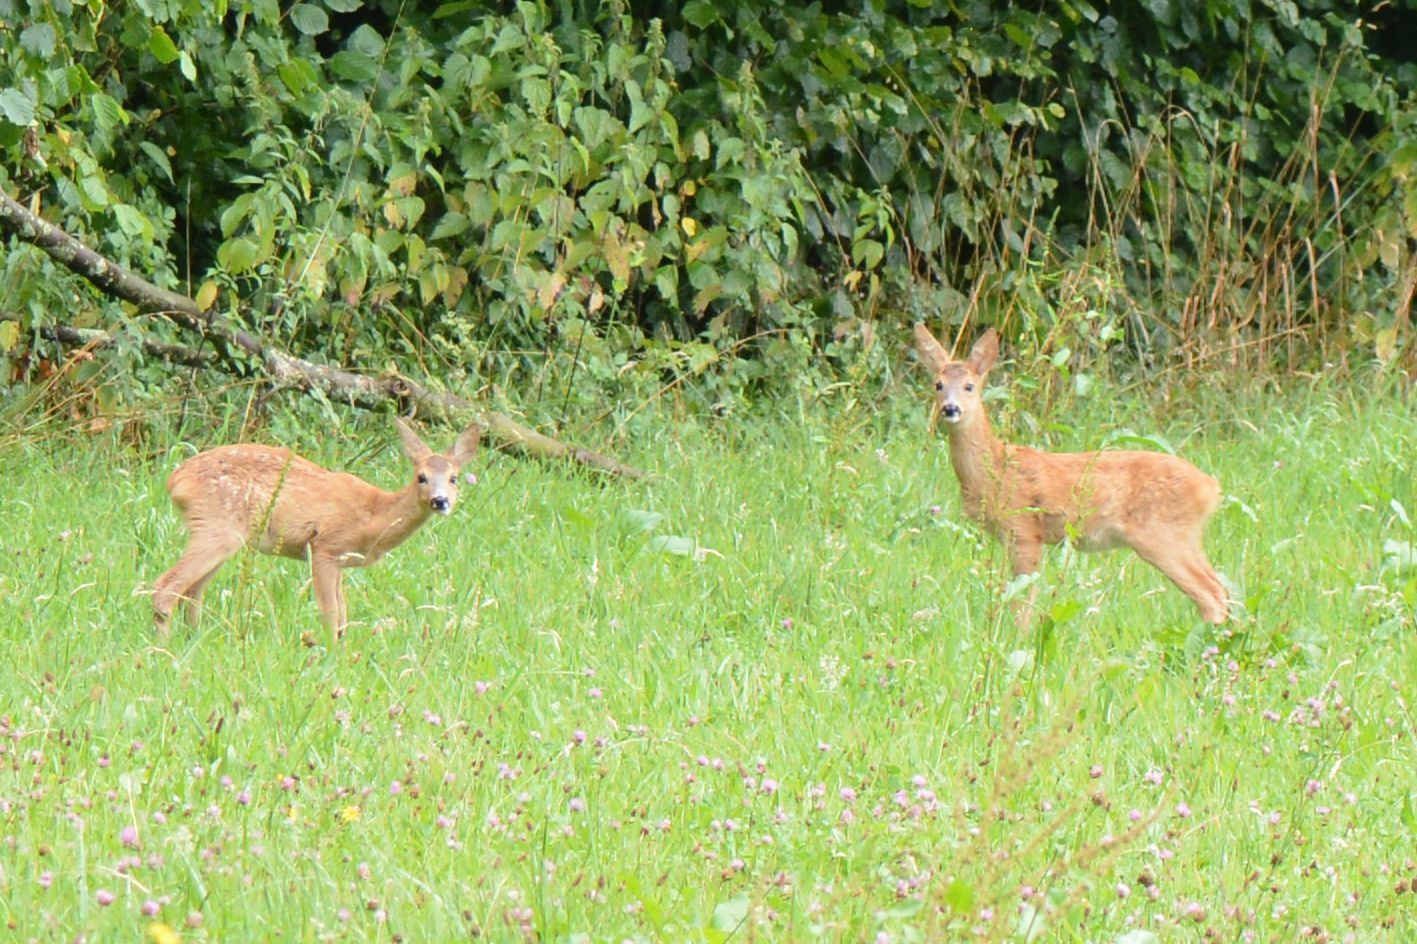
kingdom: Animalia
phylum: Chordata
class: Mammalia
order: Artiodactyla
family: Cervidae
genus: Capreolus
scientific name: Capreolus capreolus
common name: Western roe deer
